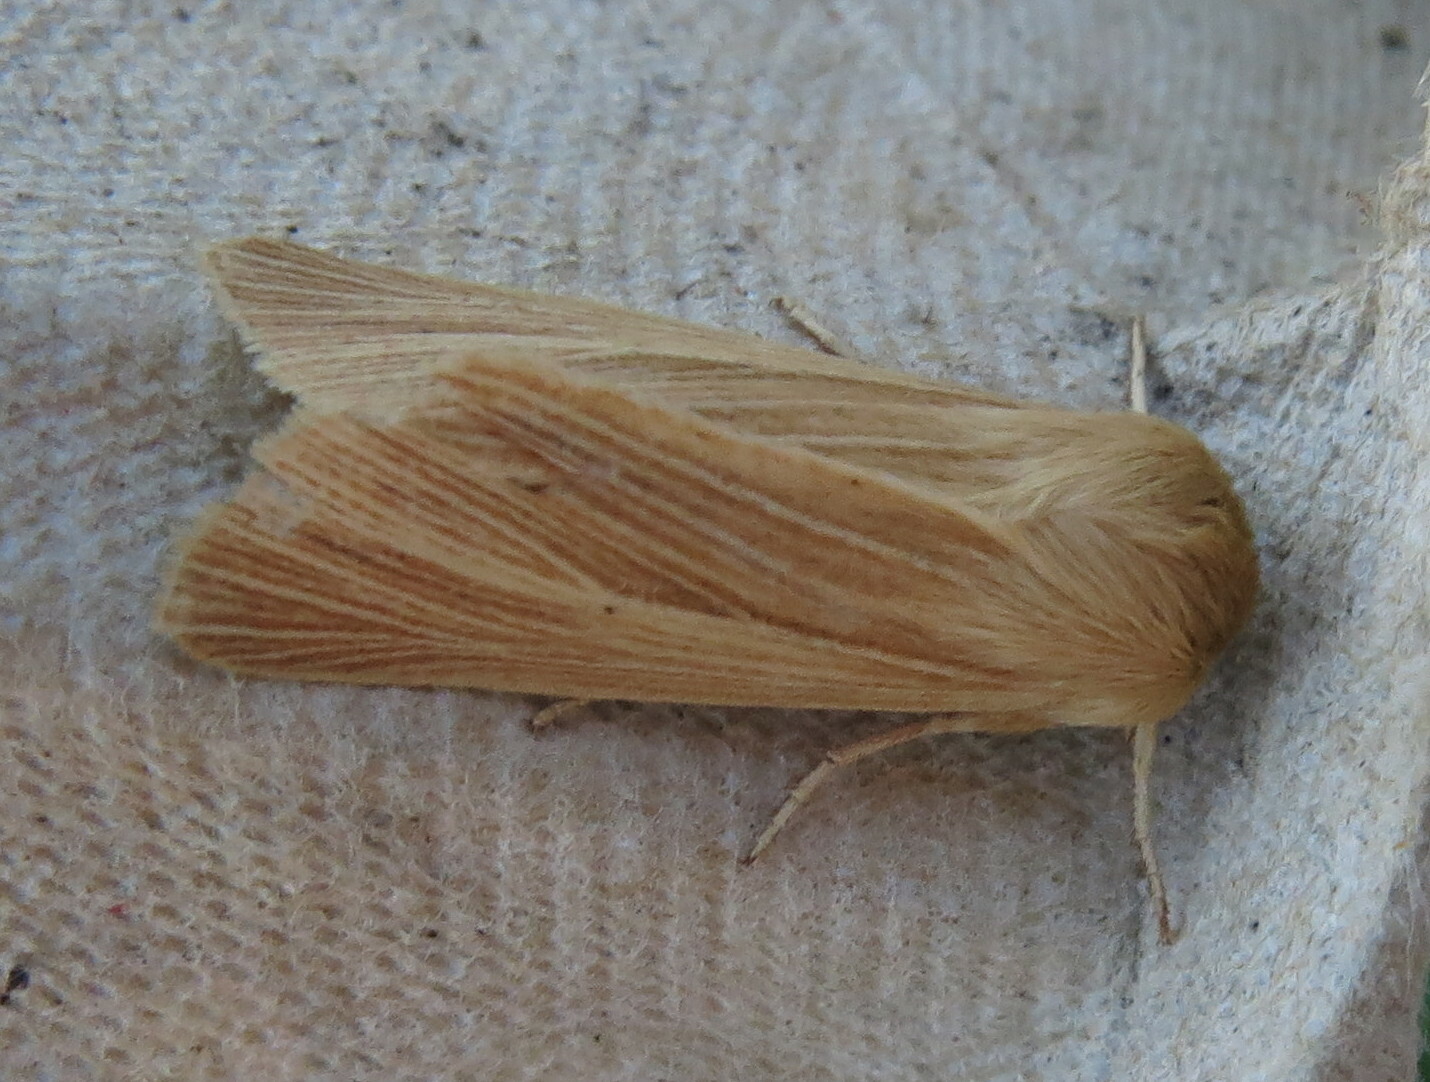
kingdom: Animalia
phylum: Arthropoda
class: Insecta
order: Lepidoptera
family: Noctuidae
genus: Mythimna
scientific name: Mythimna pallens
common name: Common wainscot
